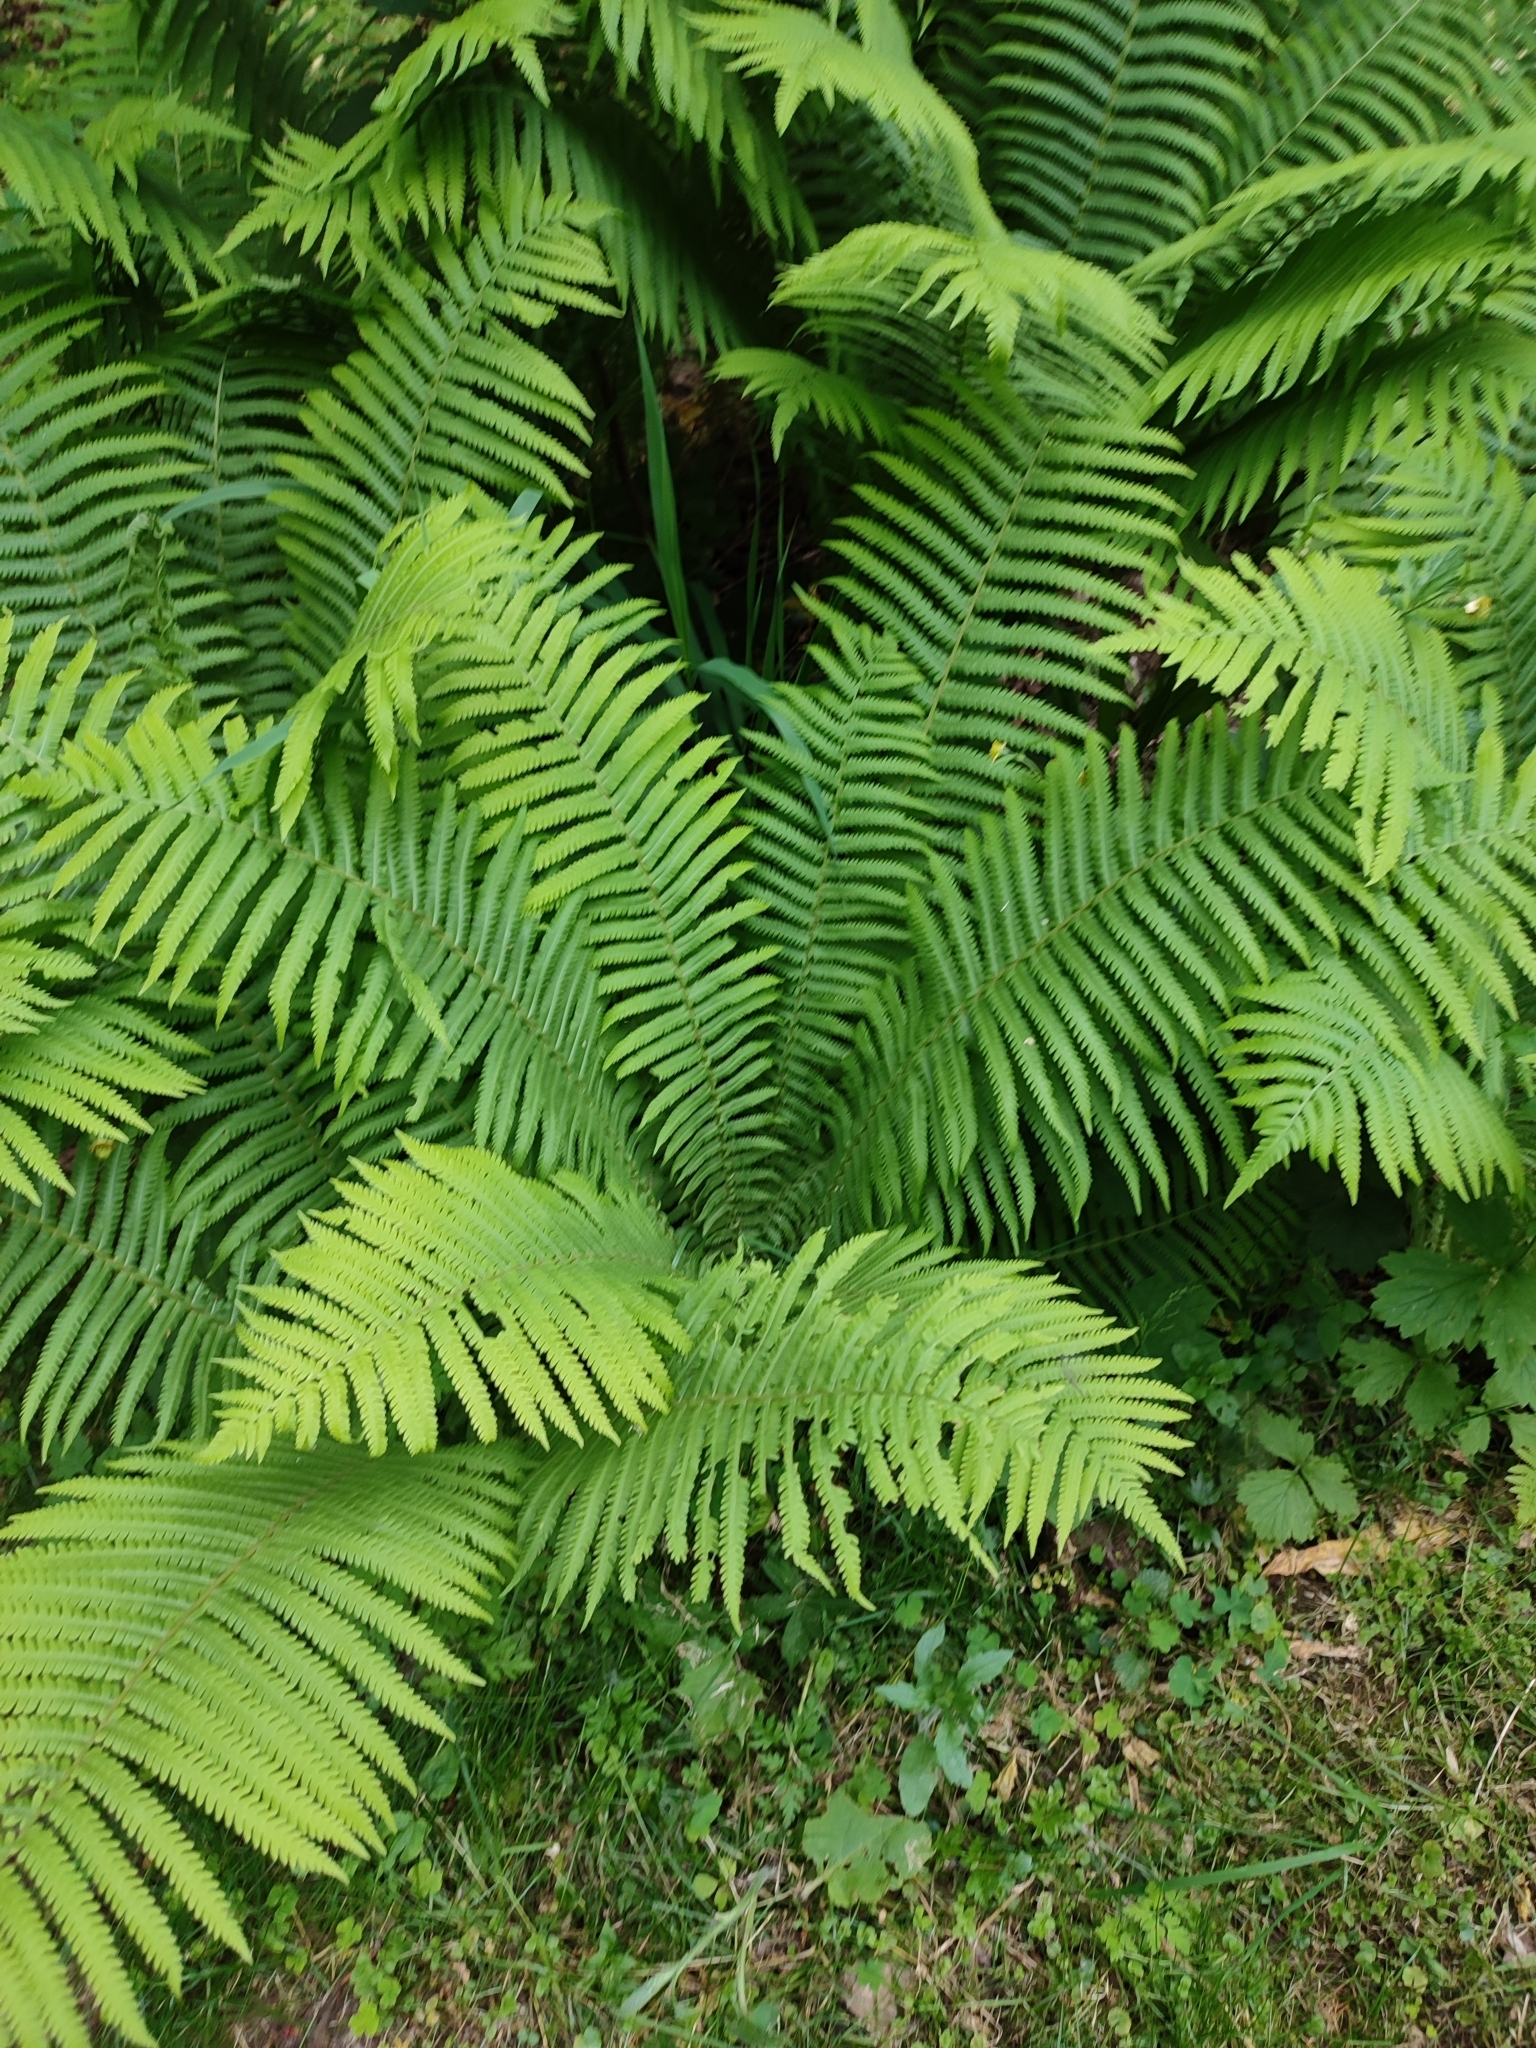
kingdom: Plantae
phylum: Tracheophyta
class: Polypodiopsida
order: Polypodiales
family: Onocleaceae
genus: Matteuccia
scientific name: Matteuccia struthiopteris
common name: Ostrich fern
